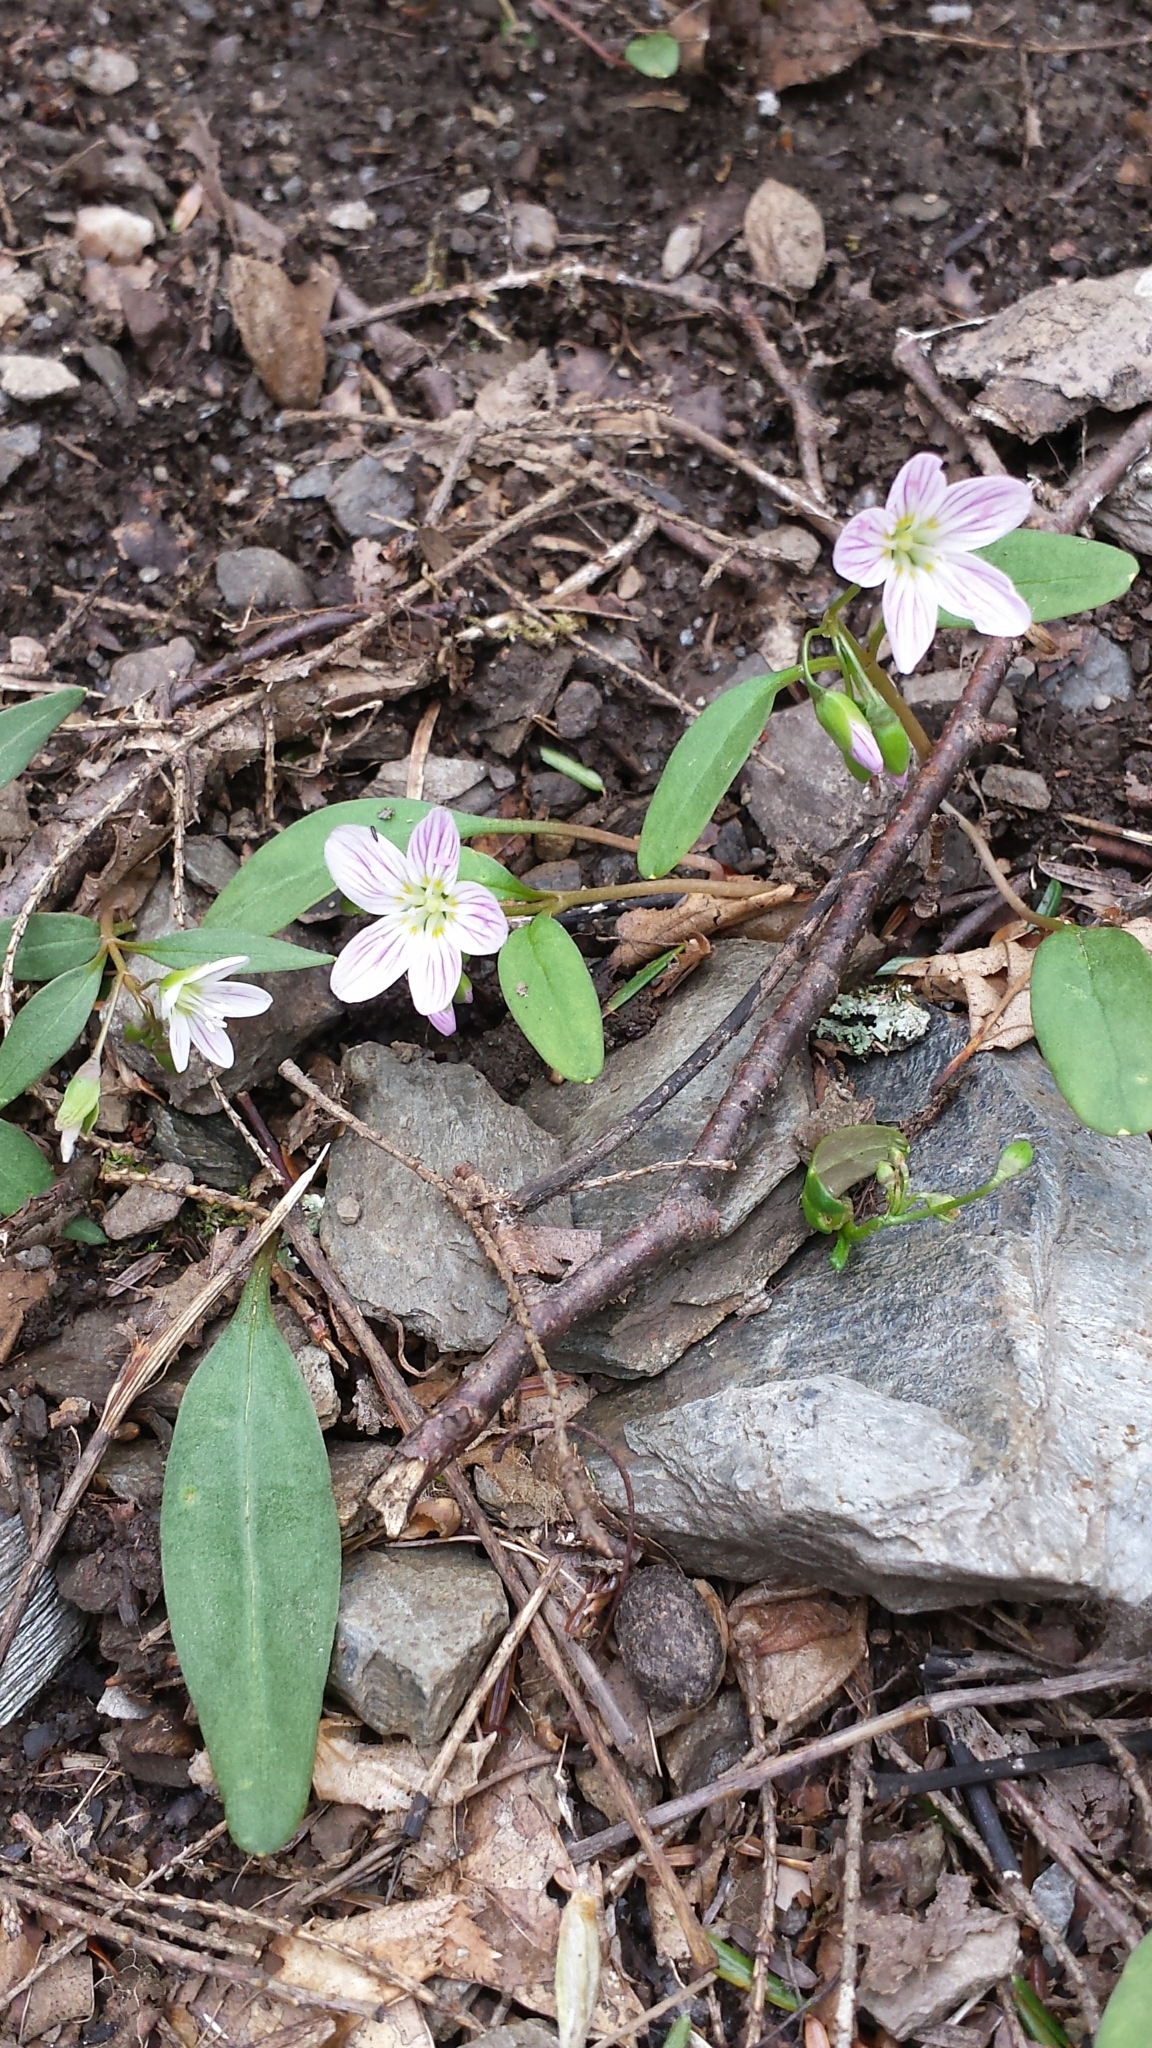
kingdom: Plantae
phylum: Tracheophyta
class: Magnoliopsida
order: Caryophyllales
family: Montiaceae
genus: Claytonia
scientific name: Claytonia caroliniana
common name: Carolina spring beauty
